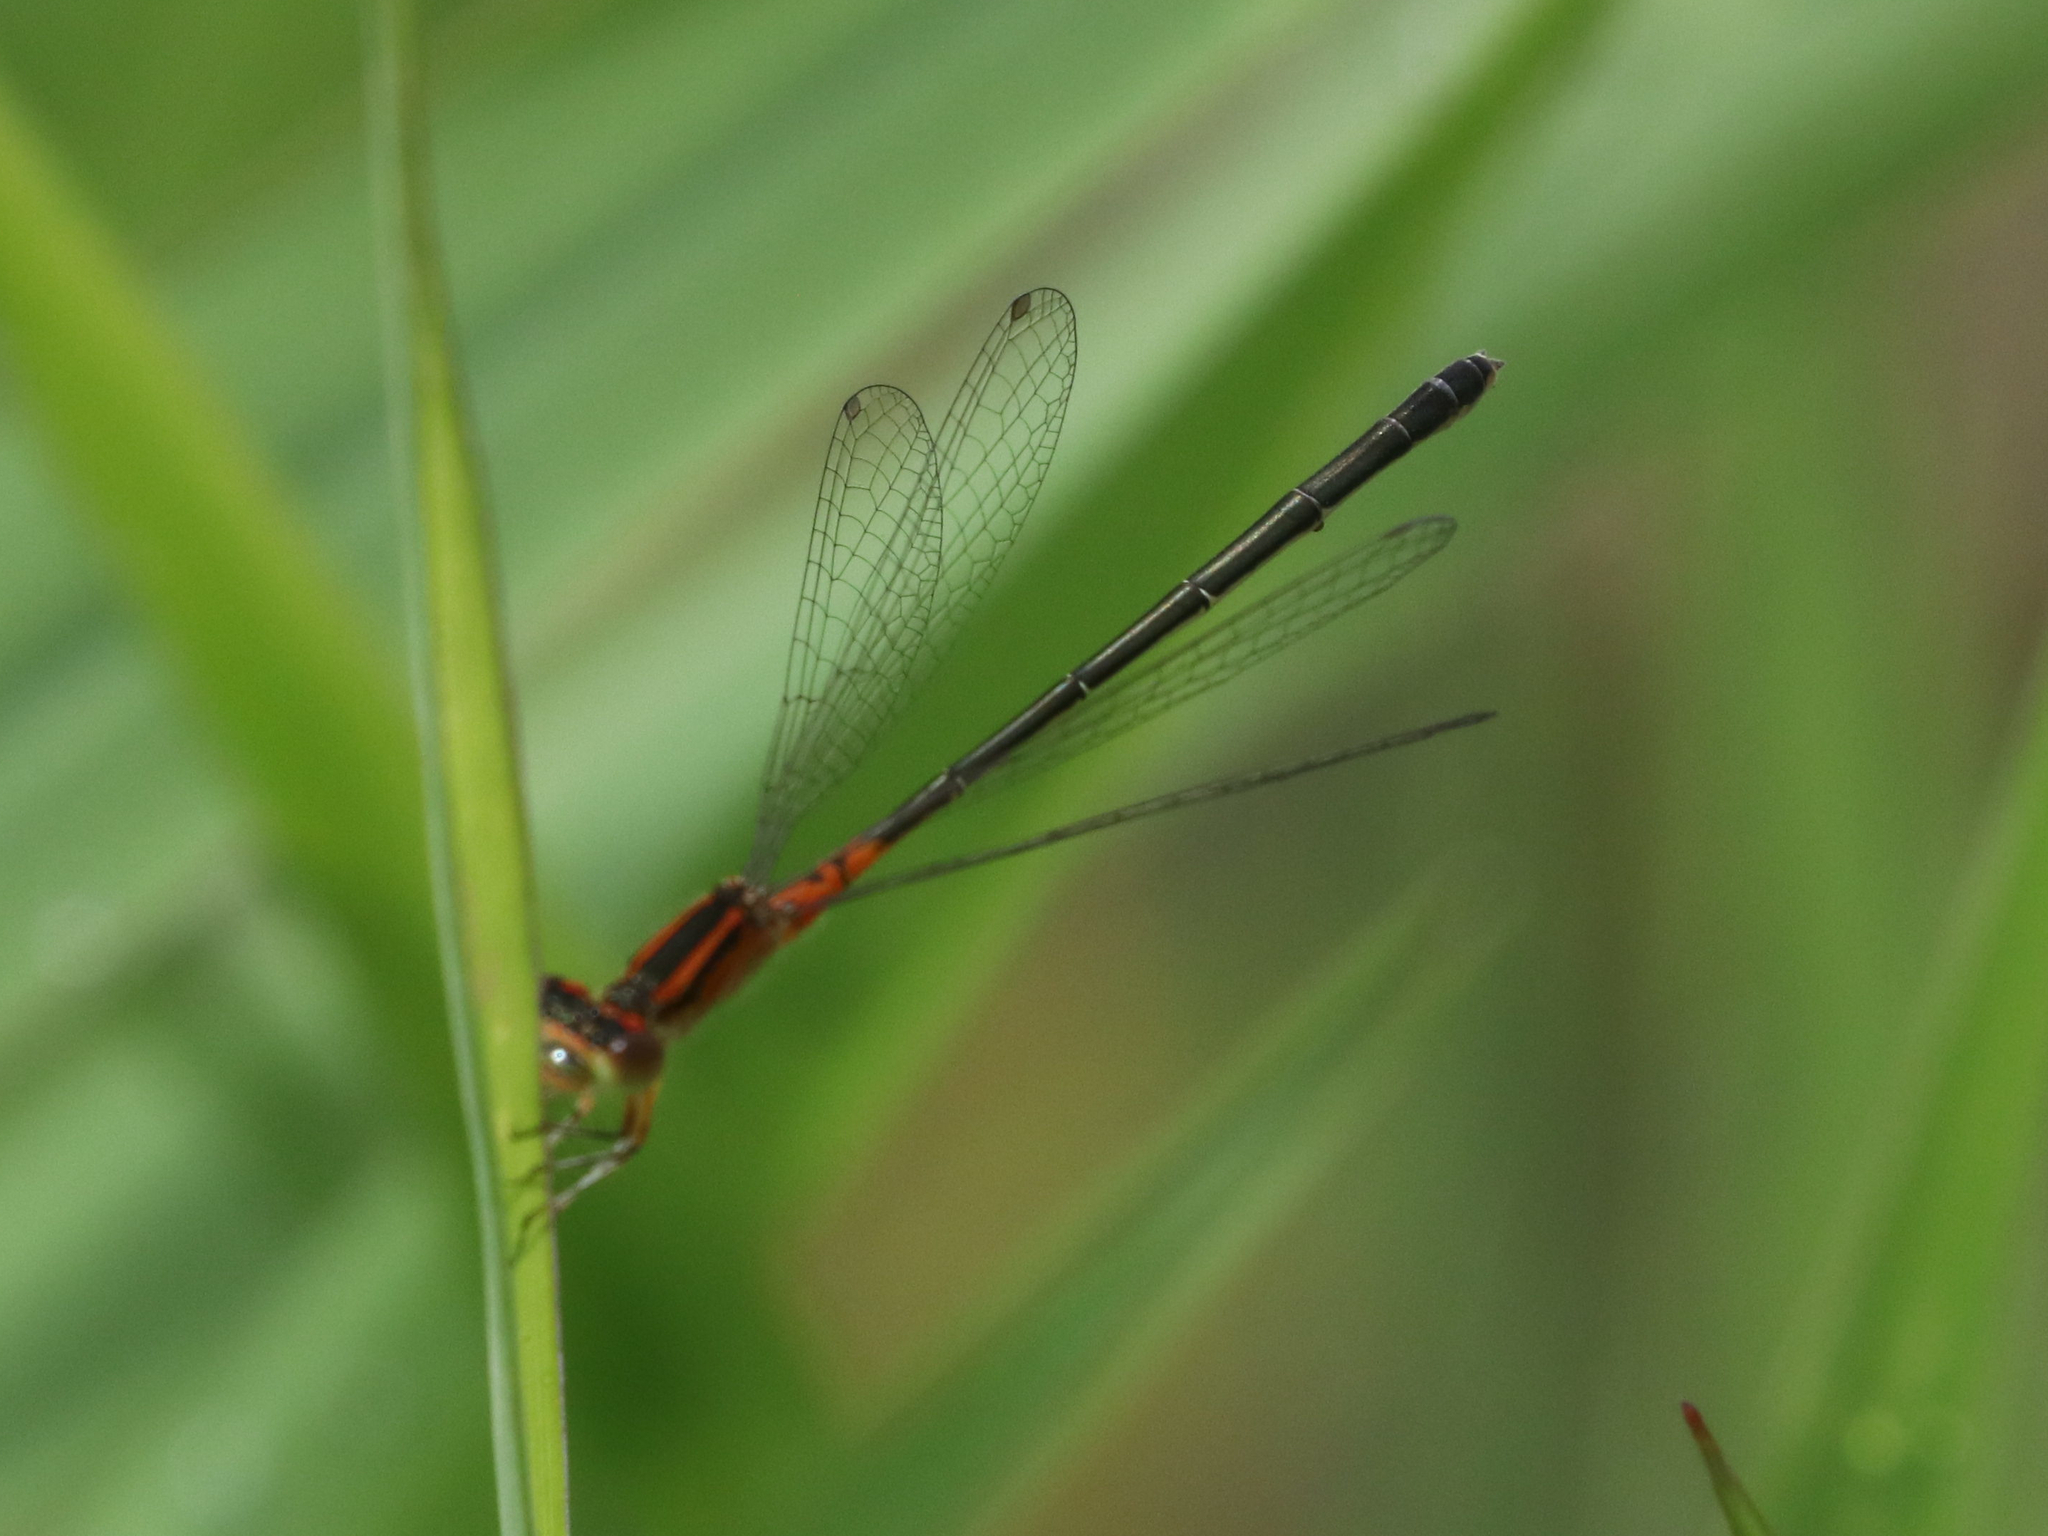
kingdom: Animalia
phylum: Arthropoda
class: Insecta
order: Odonata
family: Coenagrionidae
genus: Ischnura
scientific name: Ischnura verticalis
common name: Eastern forktail
